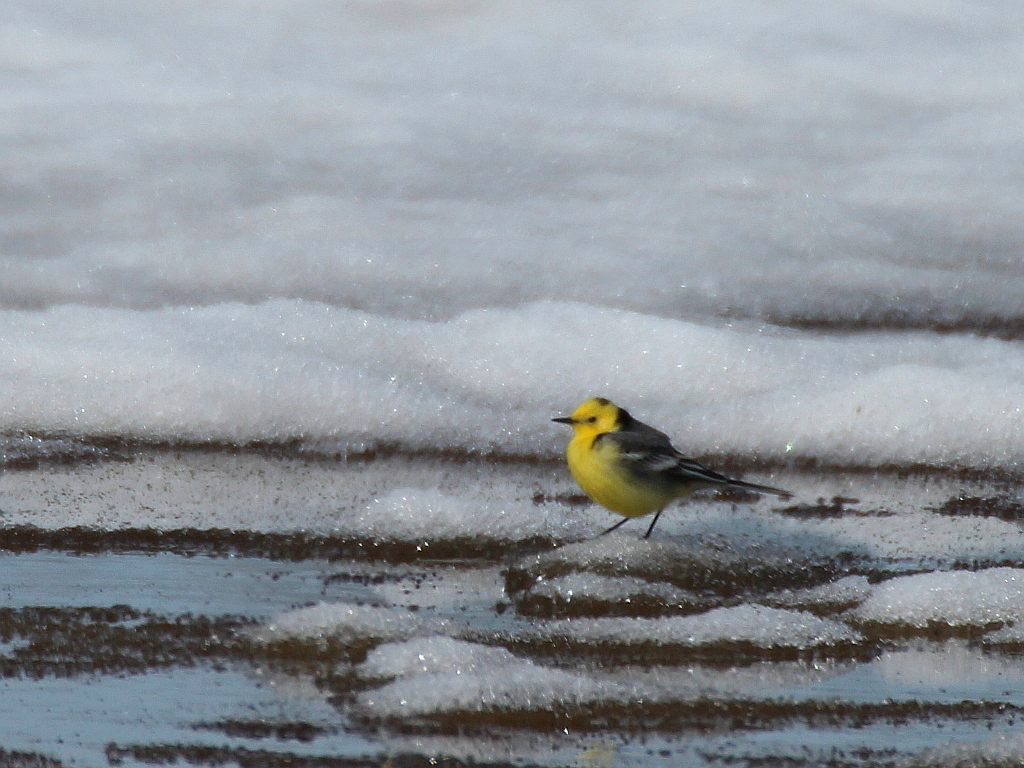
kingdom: Animalia
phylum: Chordata
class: Aves
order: Passeriformes
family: Motacillidae
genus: Motacilla
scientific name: Motacilla citreola
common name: Citrine wagtail
